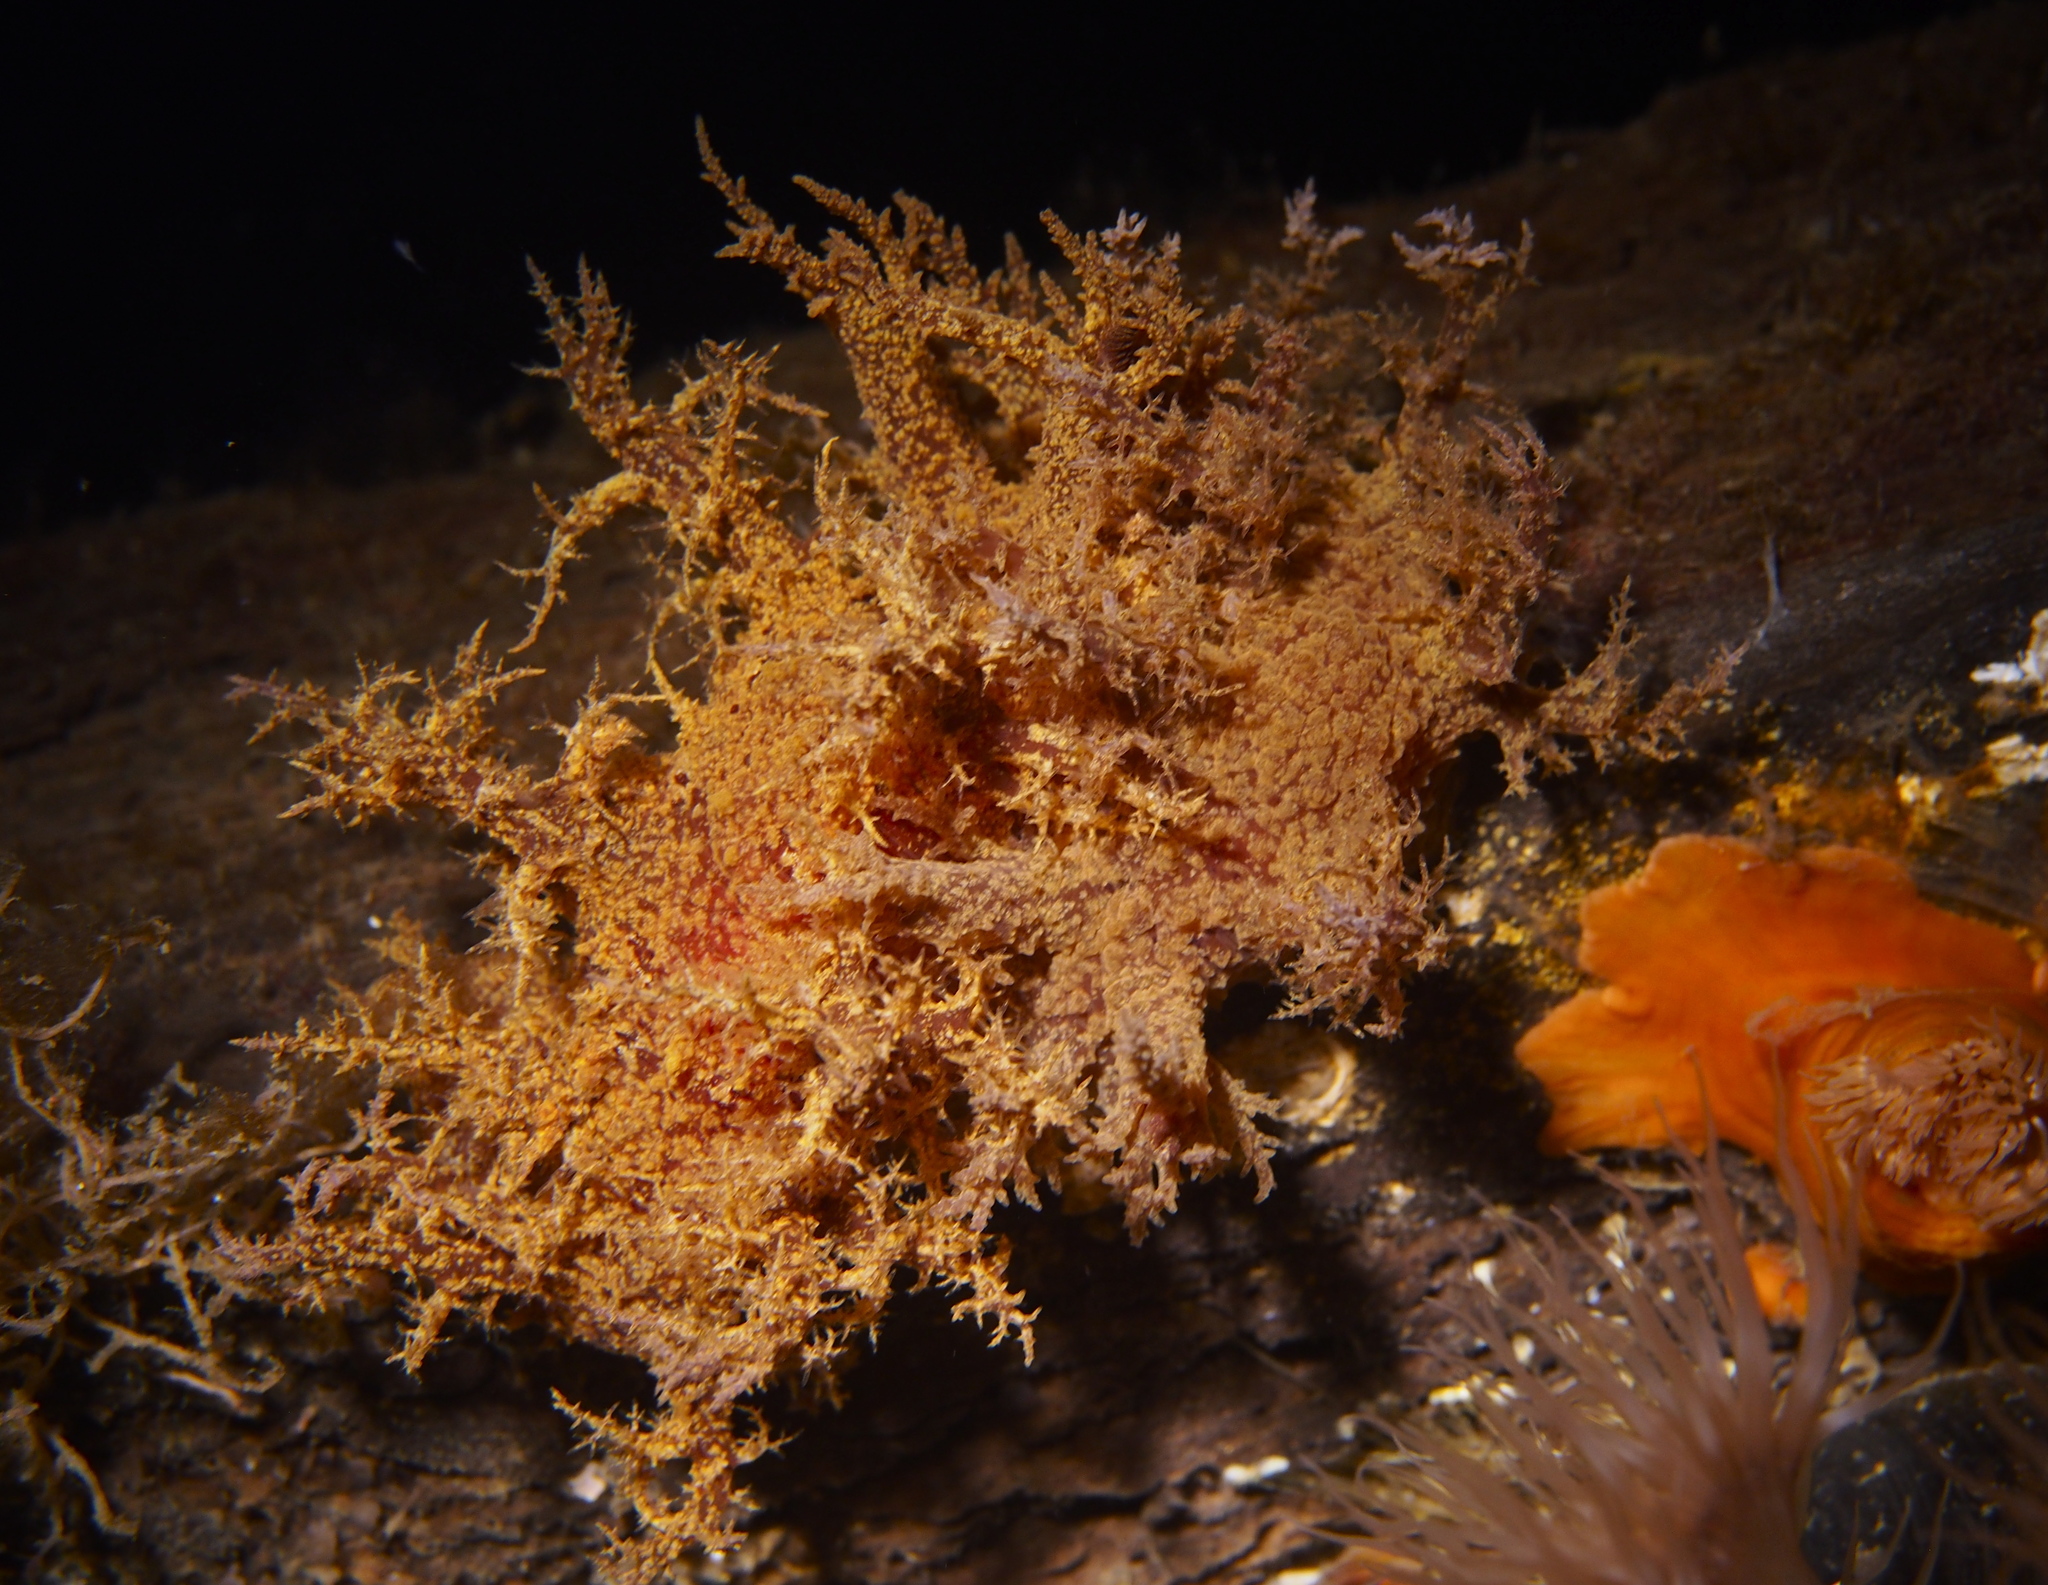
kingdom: Animalia
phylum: Mollusca
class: Gastropoda
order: Nudibranchia
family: Dendronotidae
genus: Dendronotus
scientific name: Dendronotus europaeus
